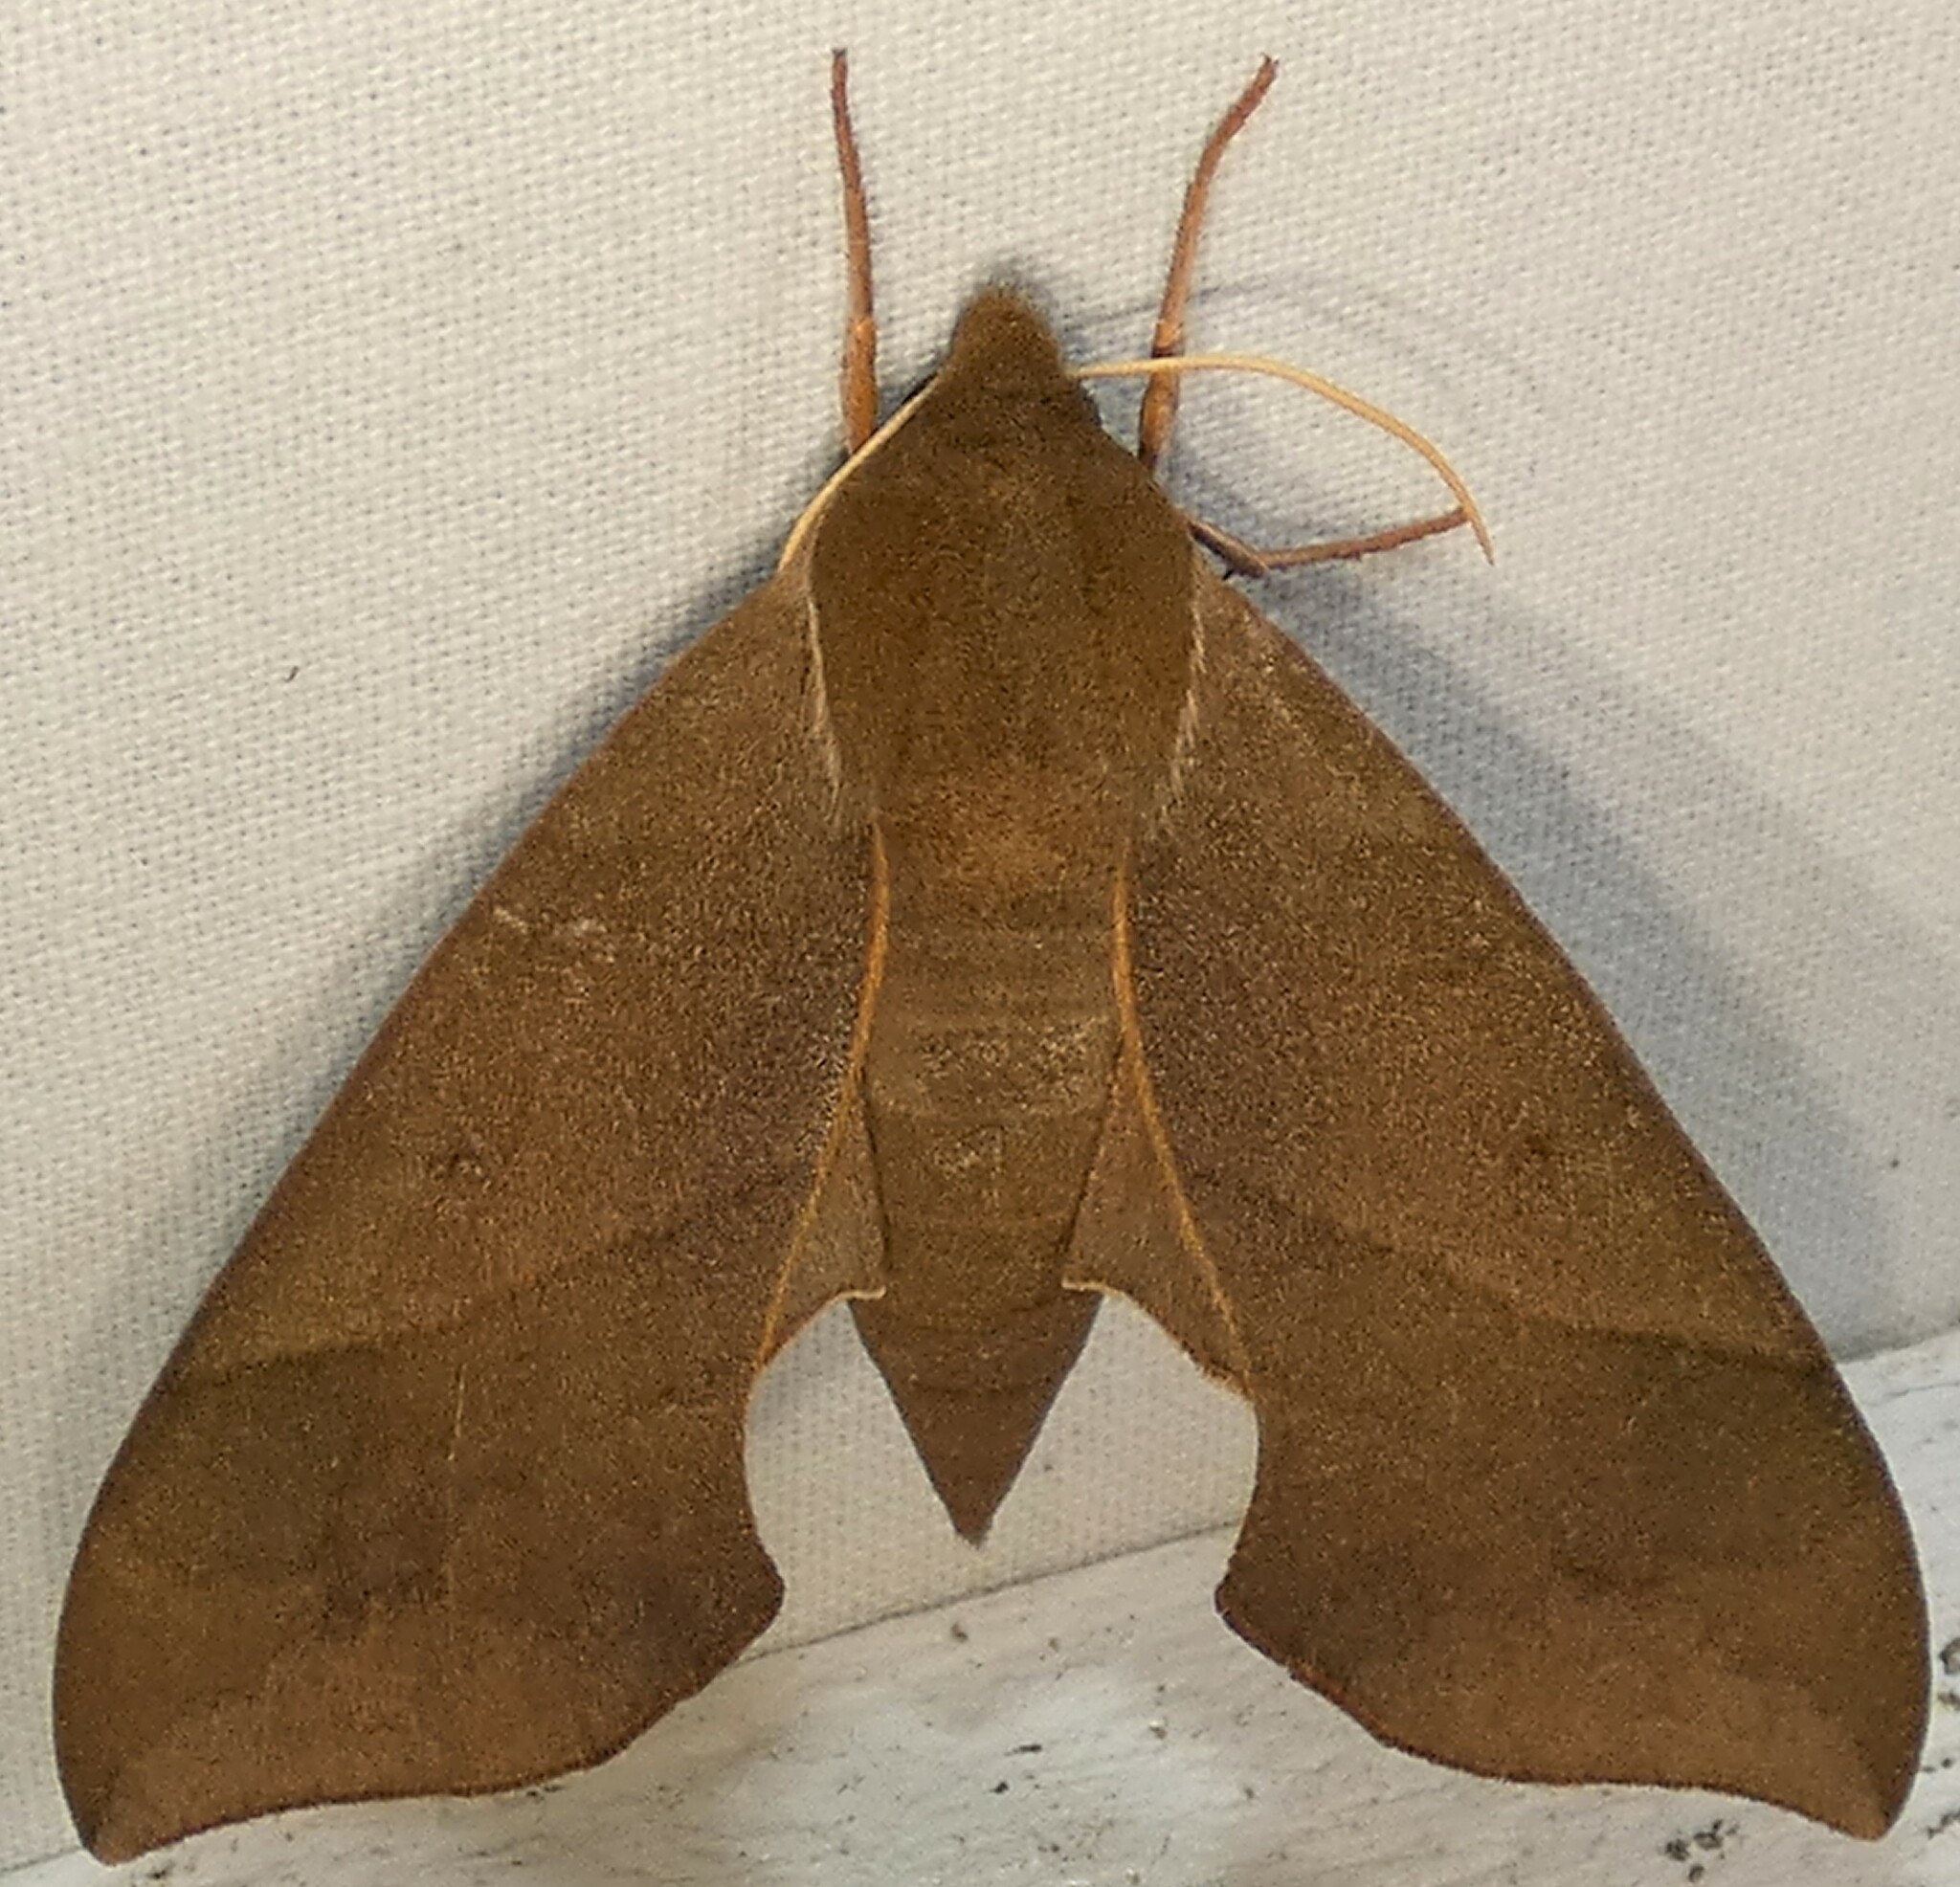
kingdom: Animalia
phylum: Arthropoda
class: Insecta
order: Lepidoptera
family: Sphingidae
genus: Darapsa
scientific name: Darapsa myron
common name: Hog sphinx
